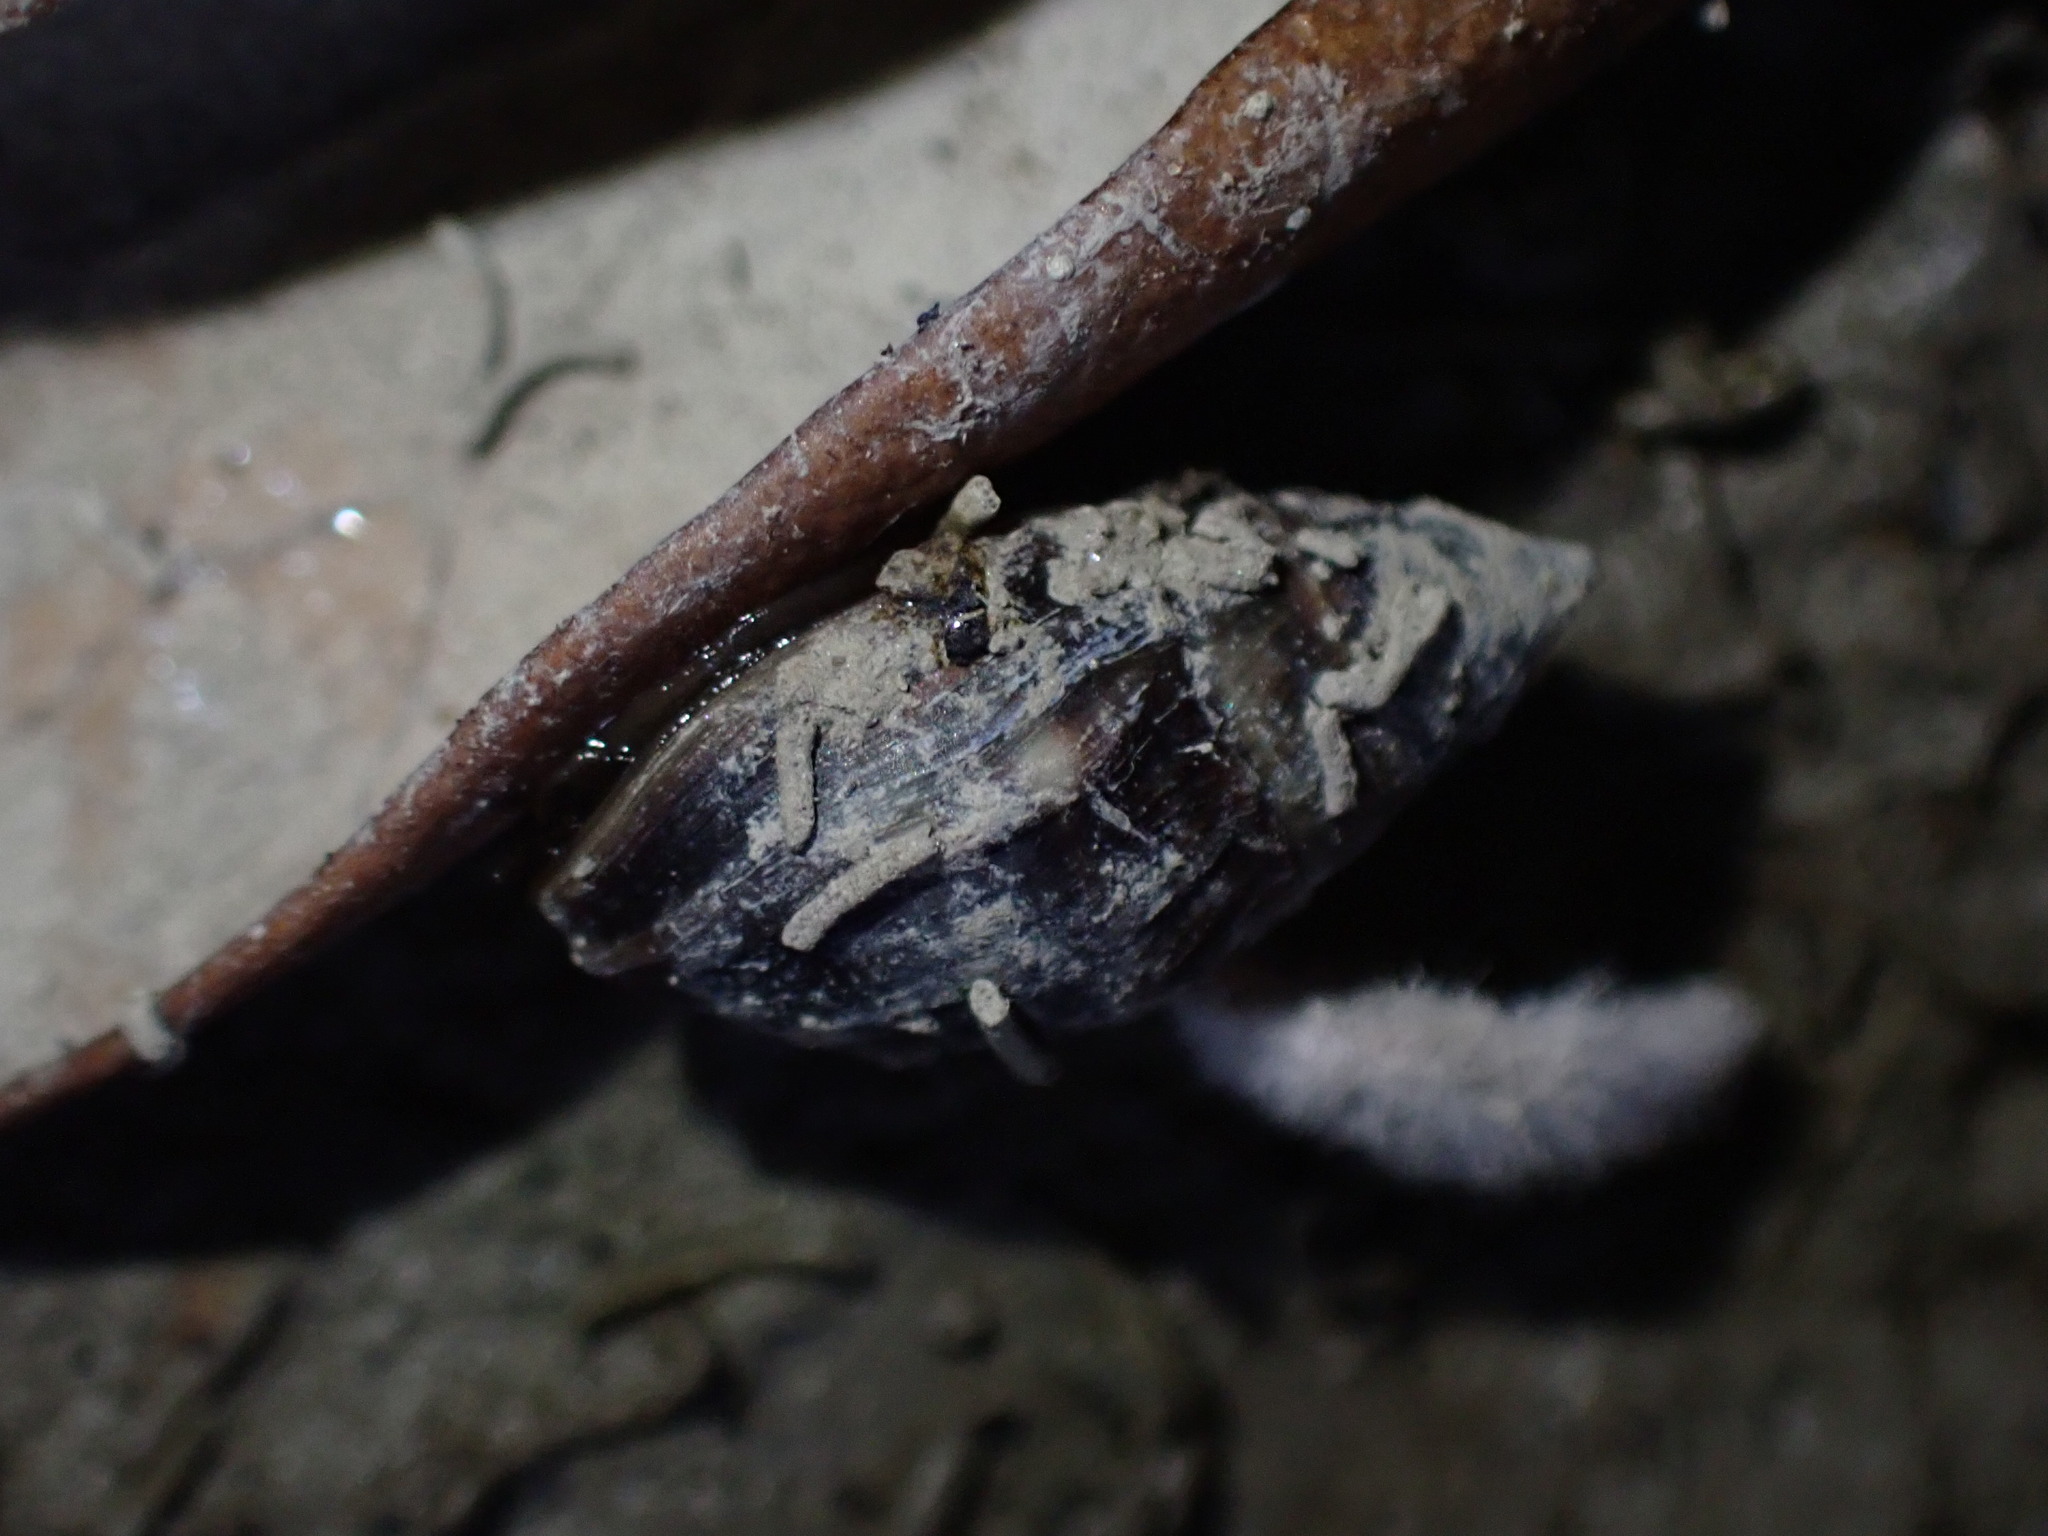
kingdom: Animalia
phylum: Mollusca
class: Gastropoda
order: Ellobiida
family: Ellobiidae
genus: Pleuroloba
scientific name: Pleuroloba costellaris
